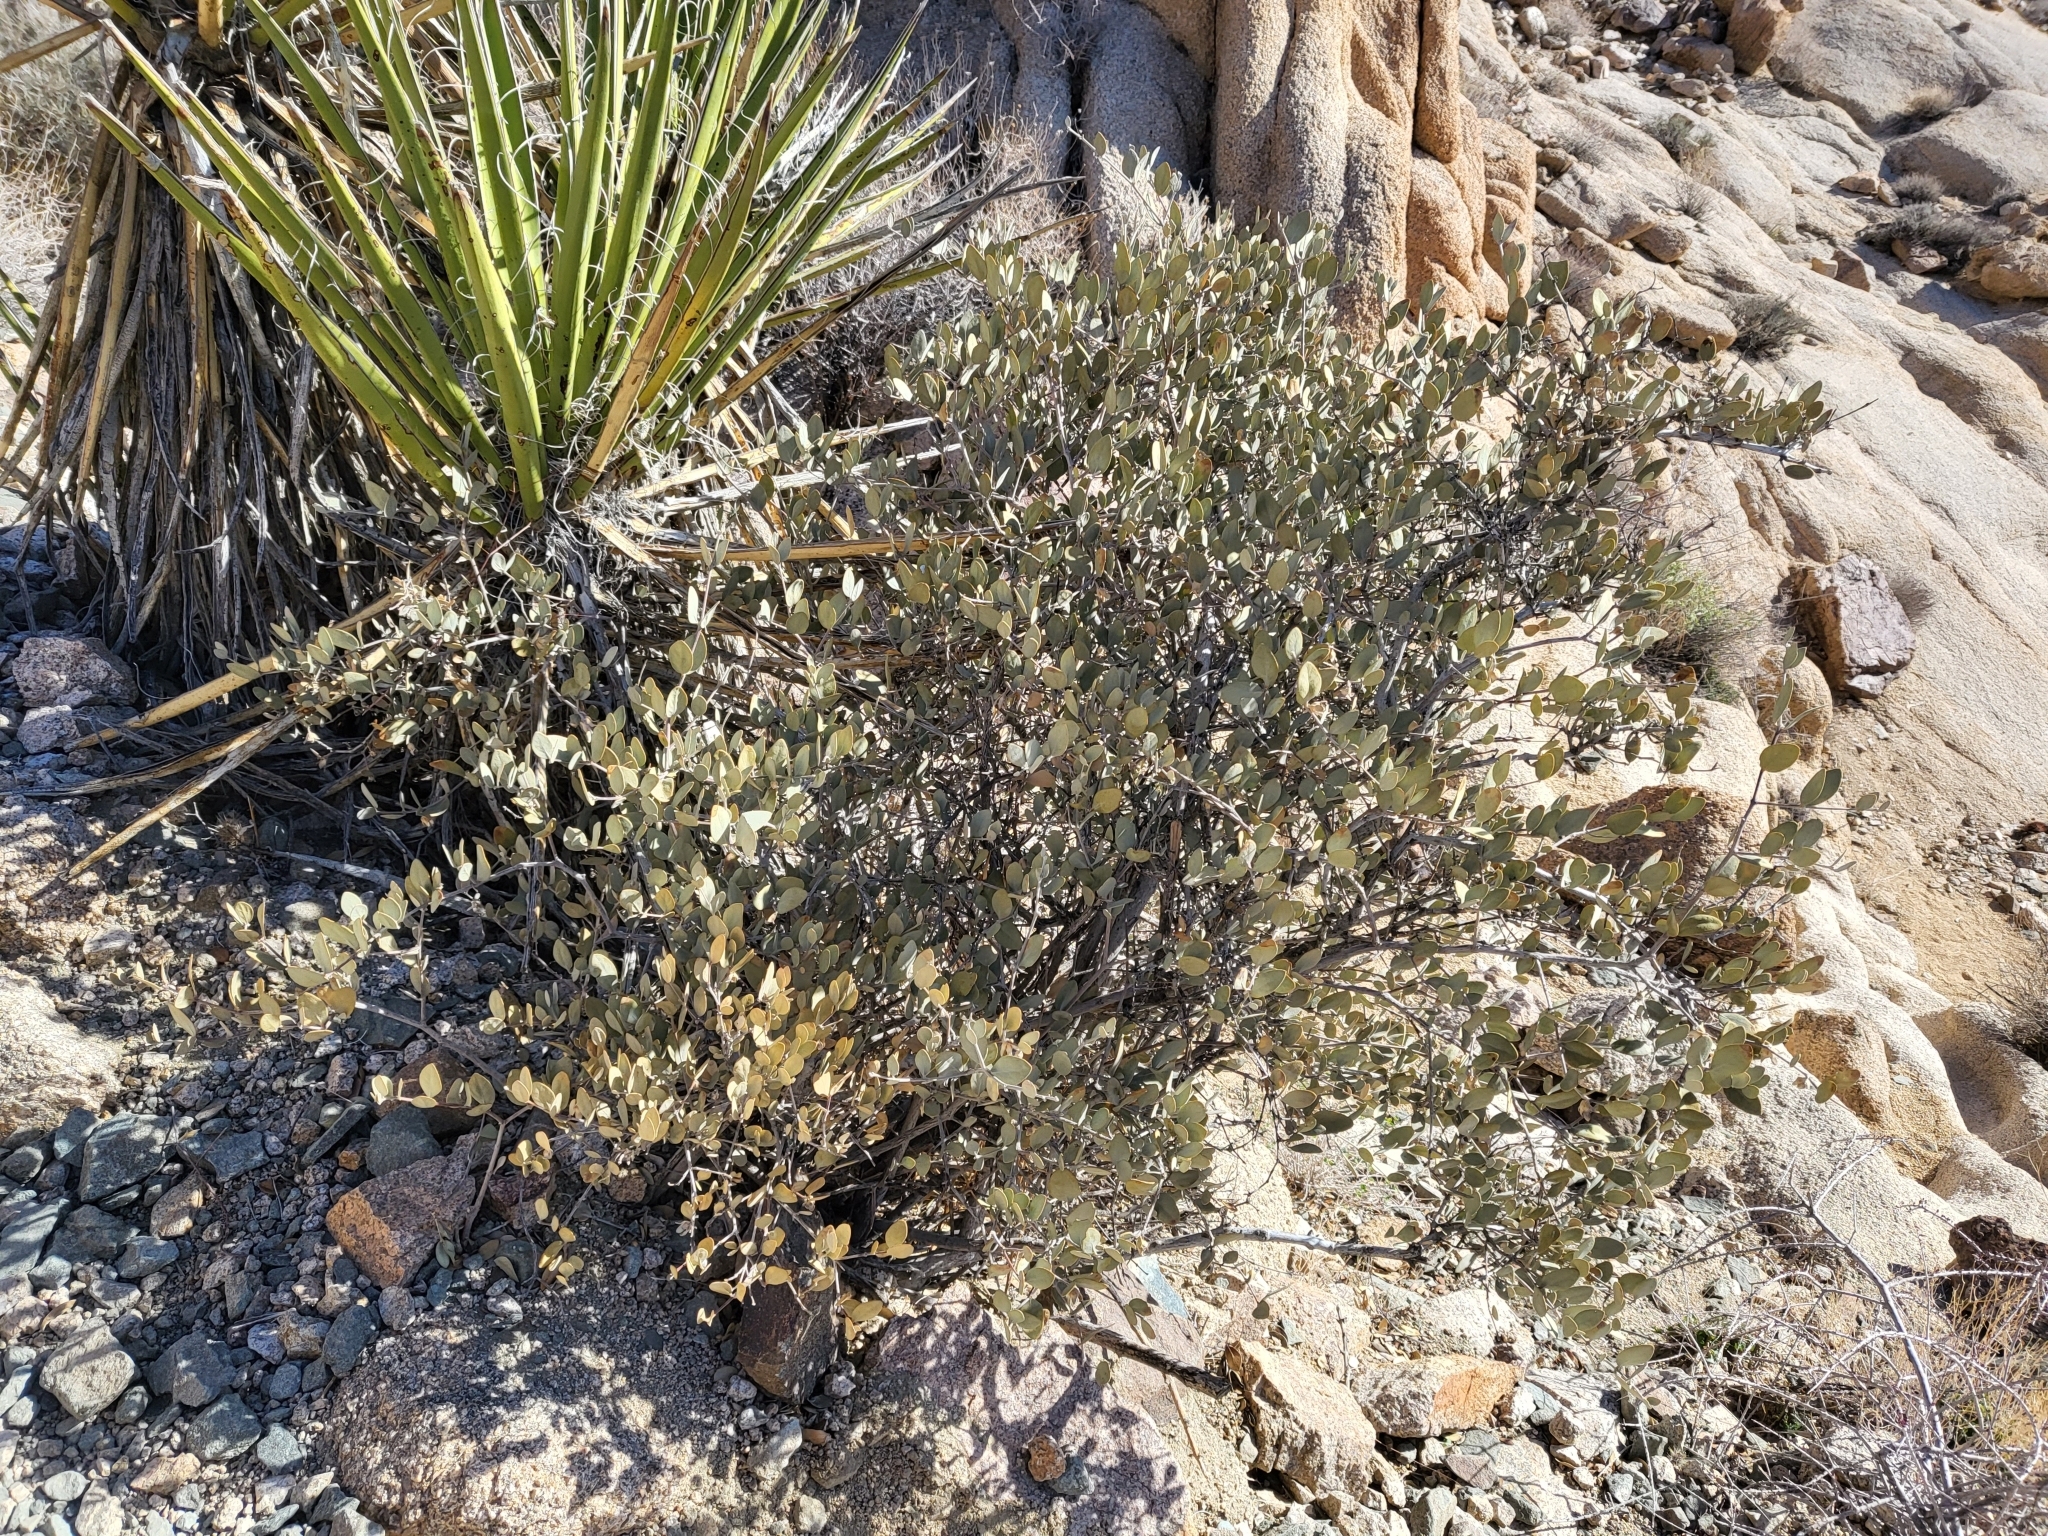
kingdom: Plantae
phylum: Tracheophyta
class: Magnoliopsida
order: Caryophyllales
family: Simmondsiaceae
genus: Simmondsia
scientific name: Simmondsia chinensis
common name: Jojoba
